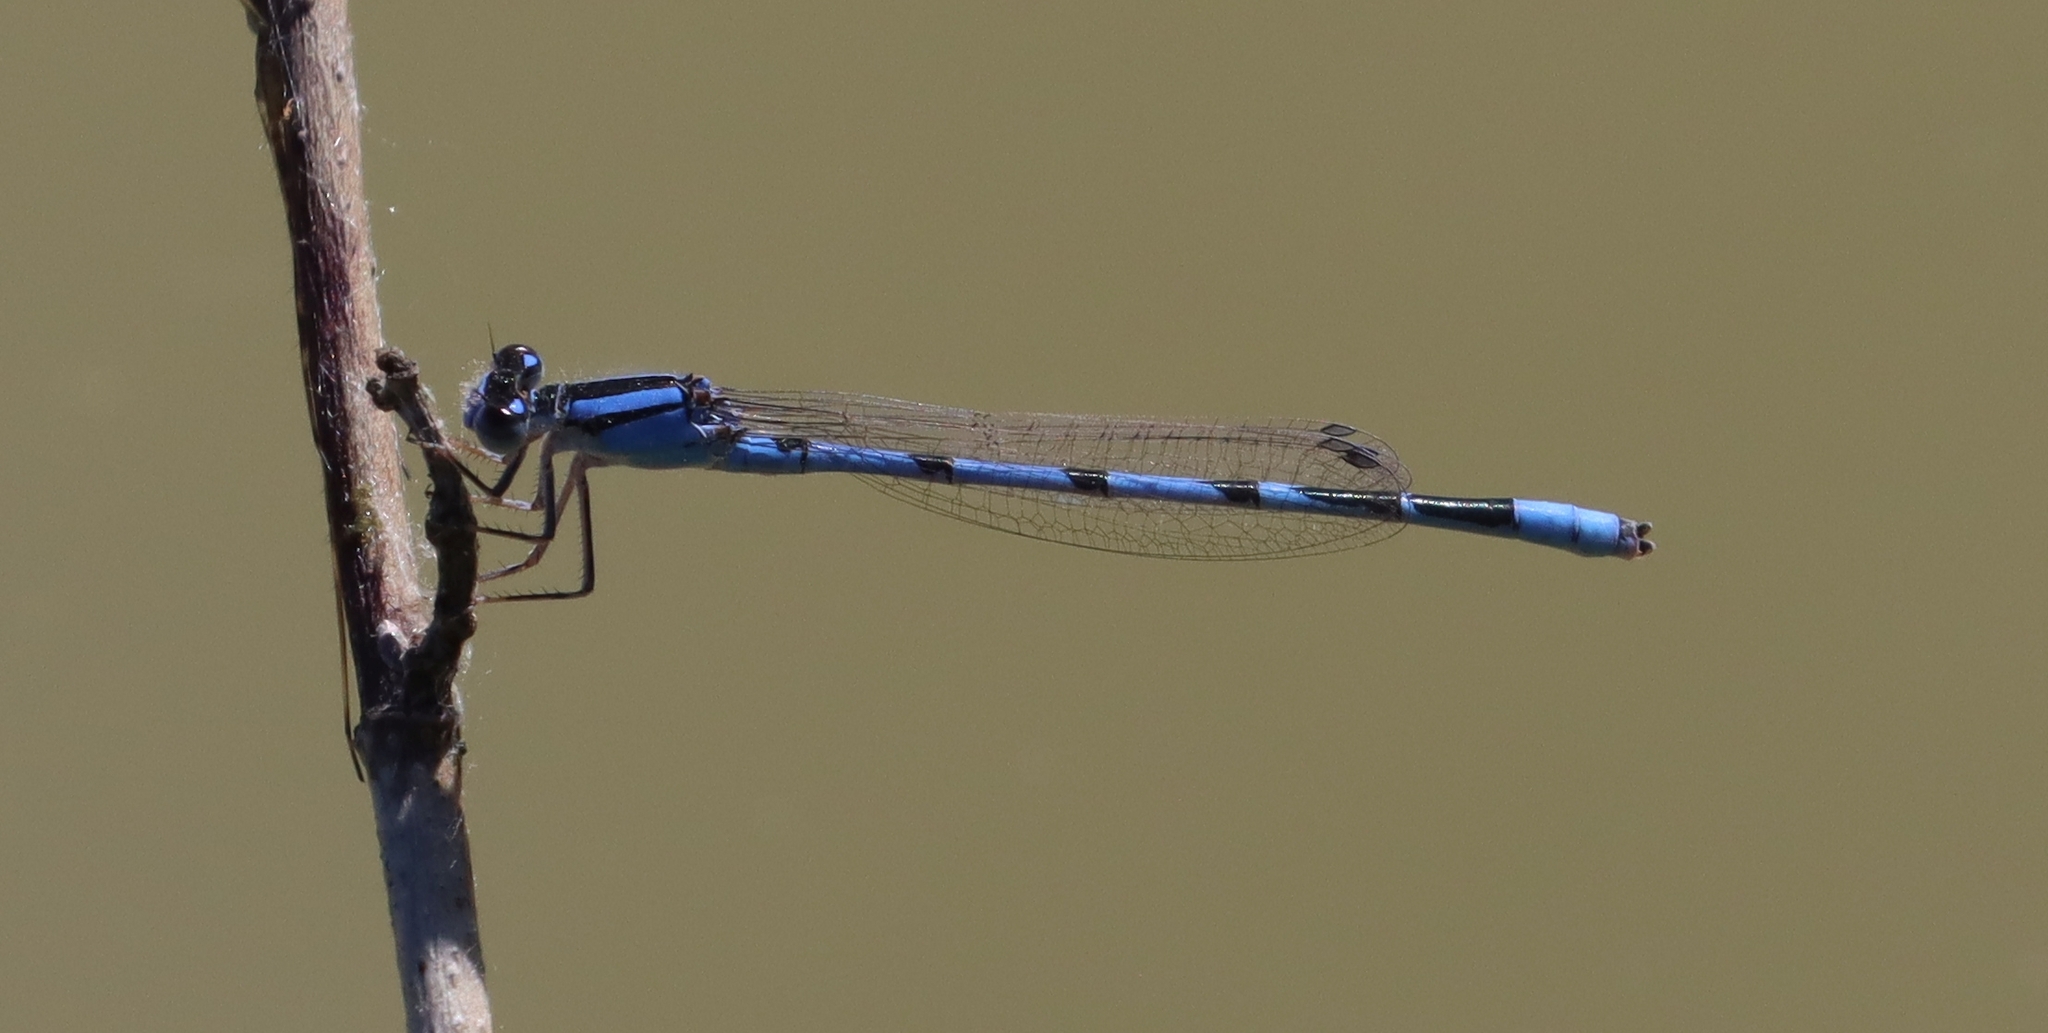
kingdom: Animalia
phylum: Arthropoda
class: Insecta
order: Odonata
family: Coenagrionidae
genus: Enallagma
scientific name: Enallagma civile
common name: Damselfly
